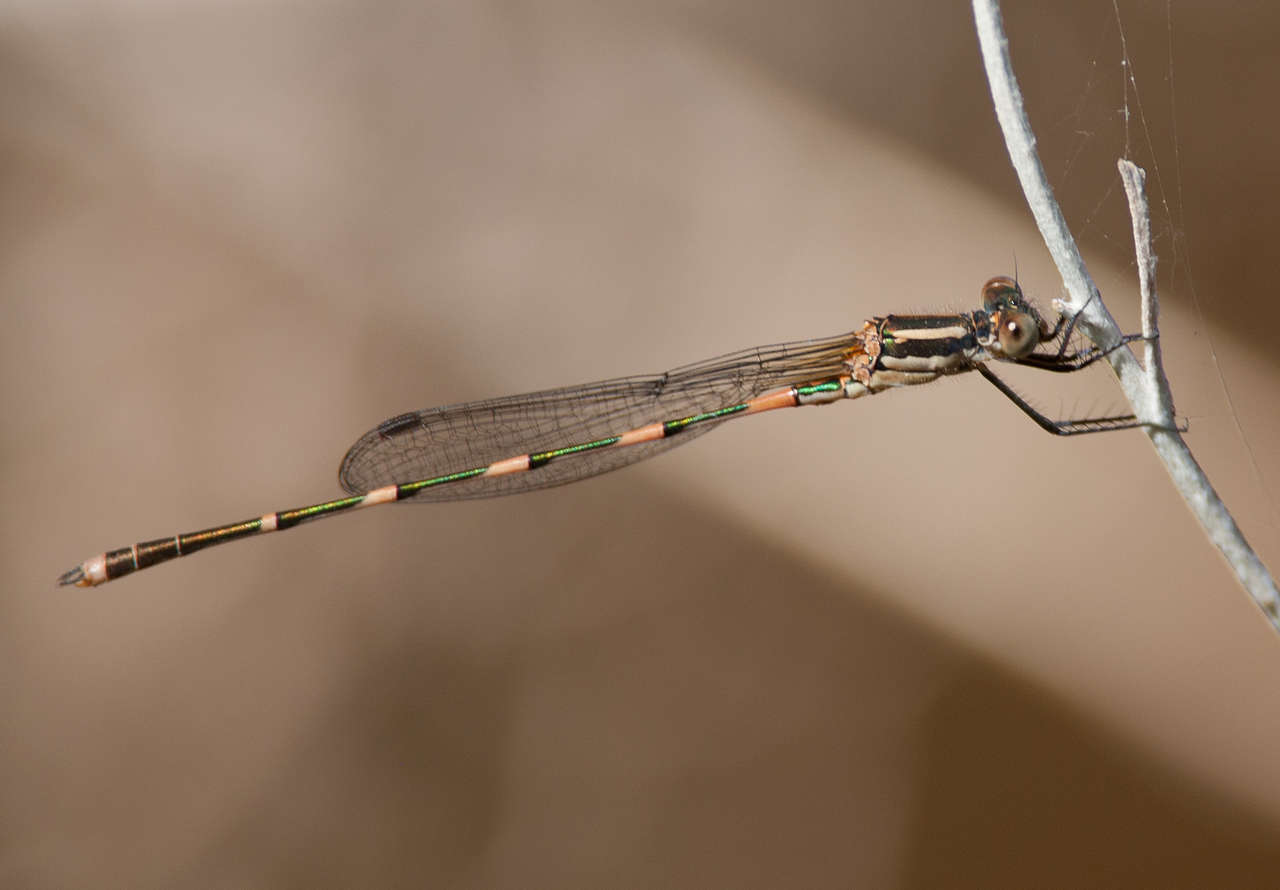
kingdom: Animalia
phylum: Arthropoda
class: Insecta
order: Odonata
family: Lestidae
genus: Austrolestes
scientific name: Austrolestes leda
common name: Wandering ringtail
